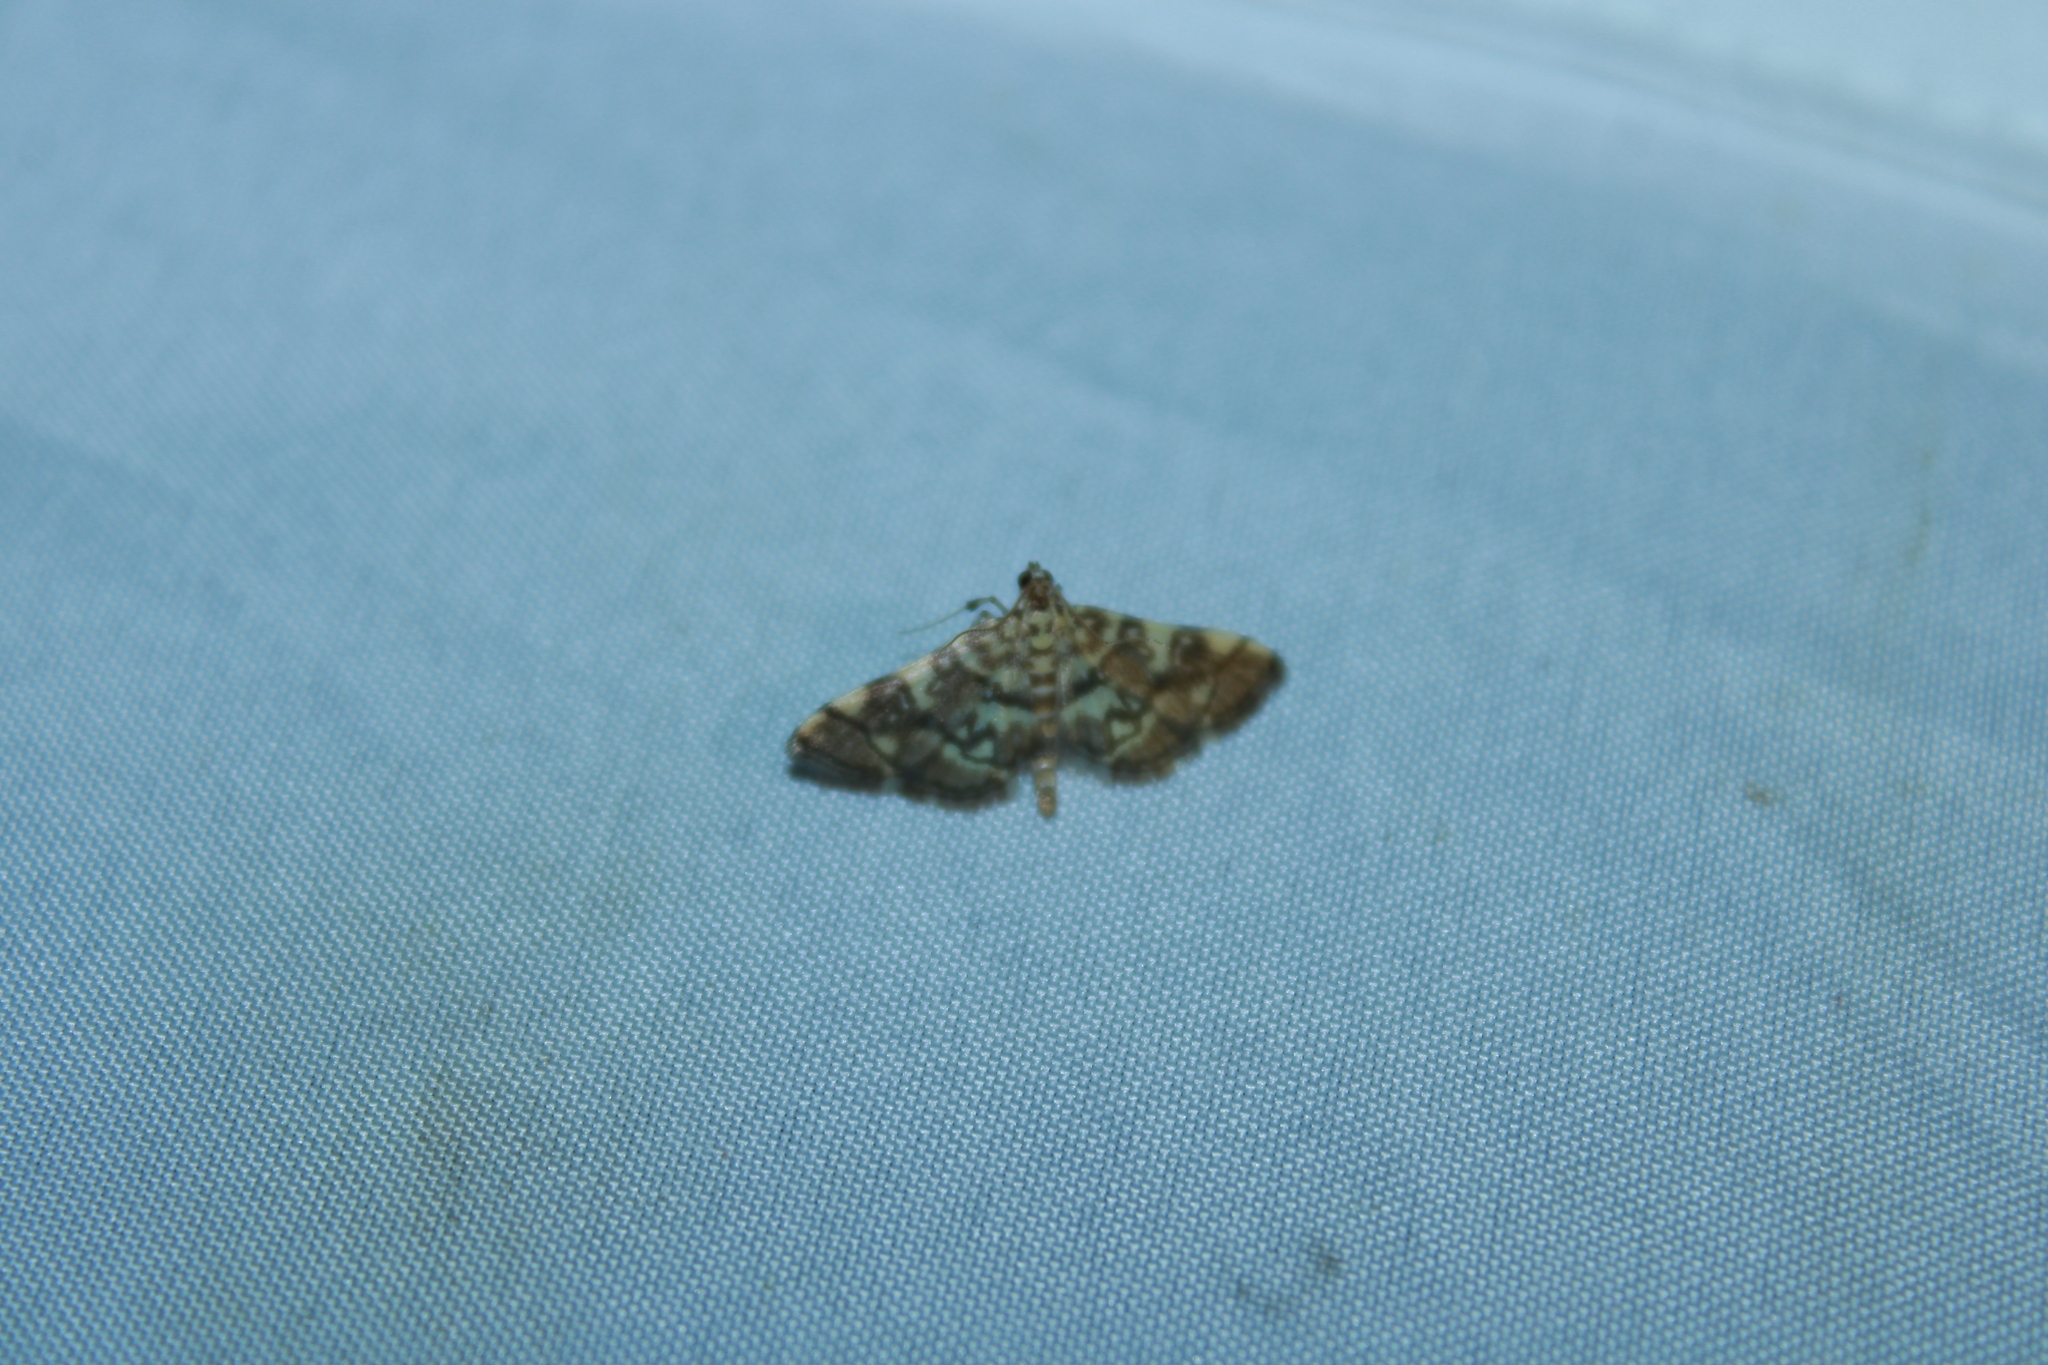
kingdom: Animalia
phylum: Arthropoda
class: Insecta
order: Lepidoptera
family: Crambidae
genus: Apogeshna
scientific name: Apogeshna stenialis
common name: Checkered apogeshna moth
